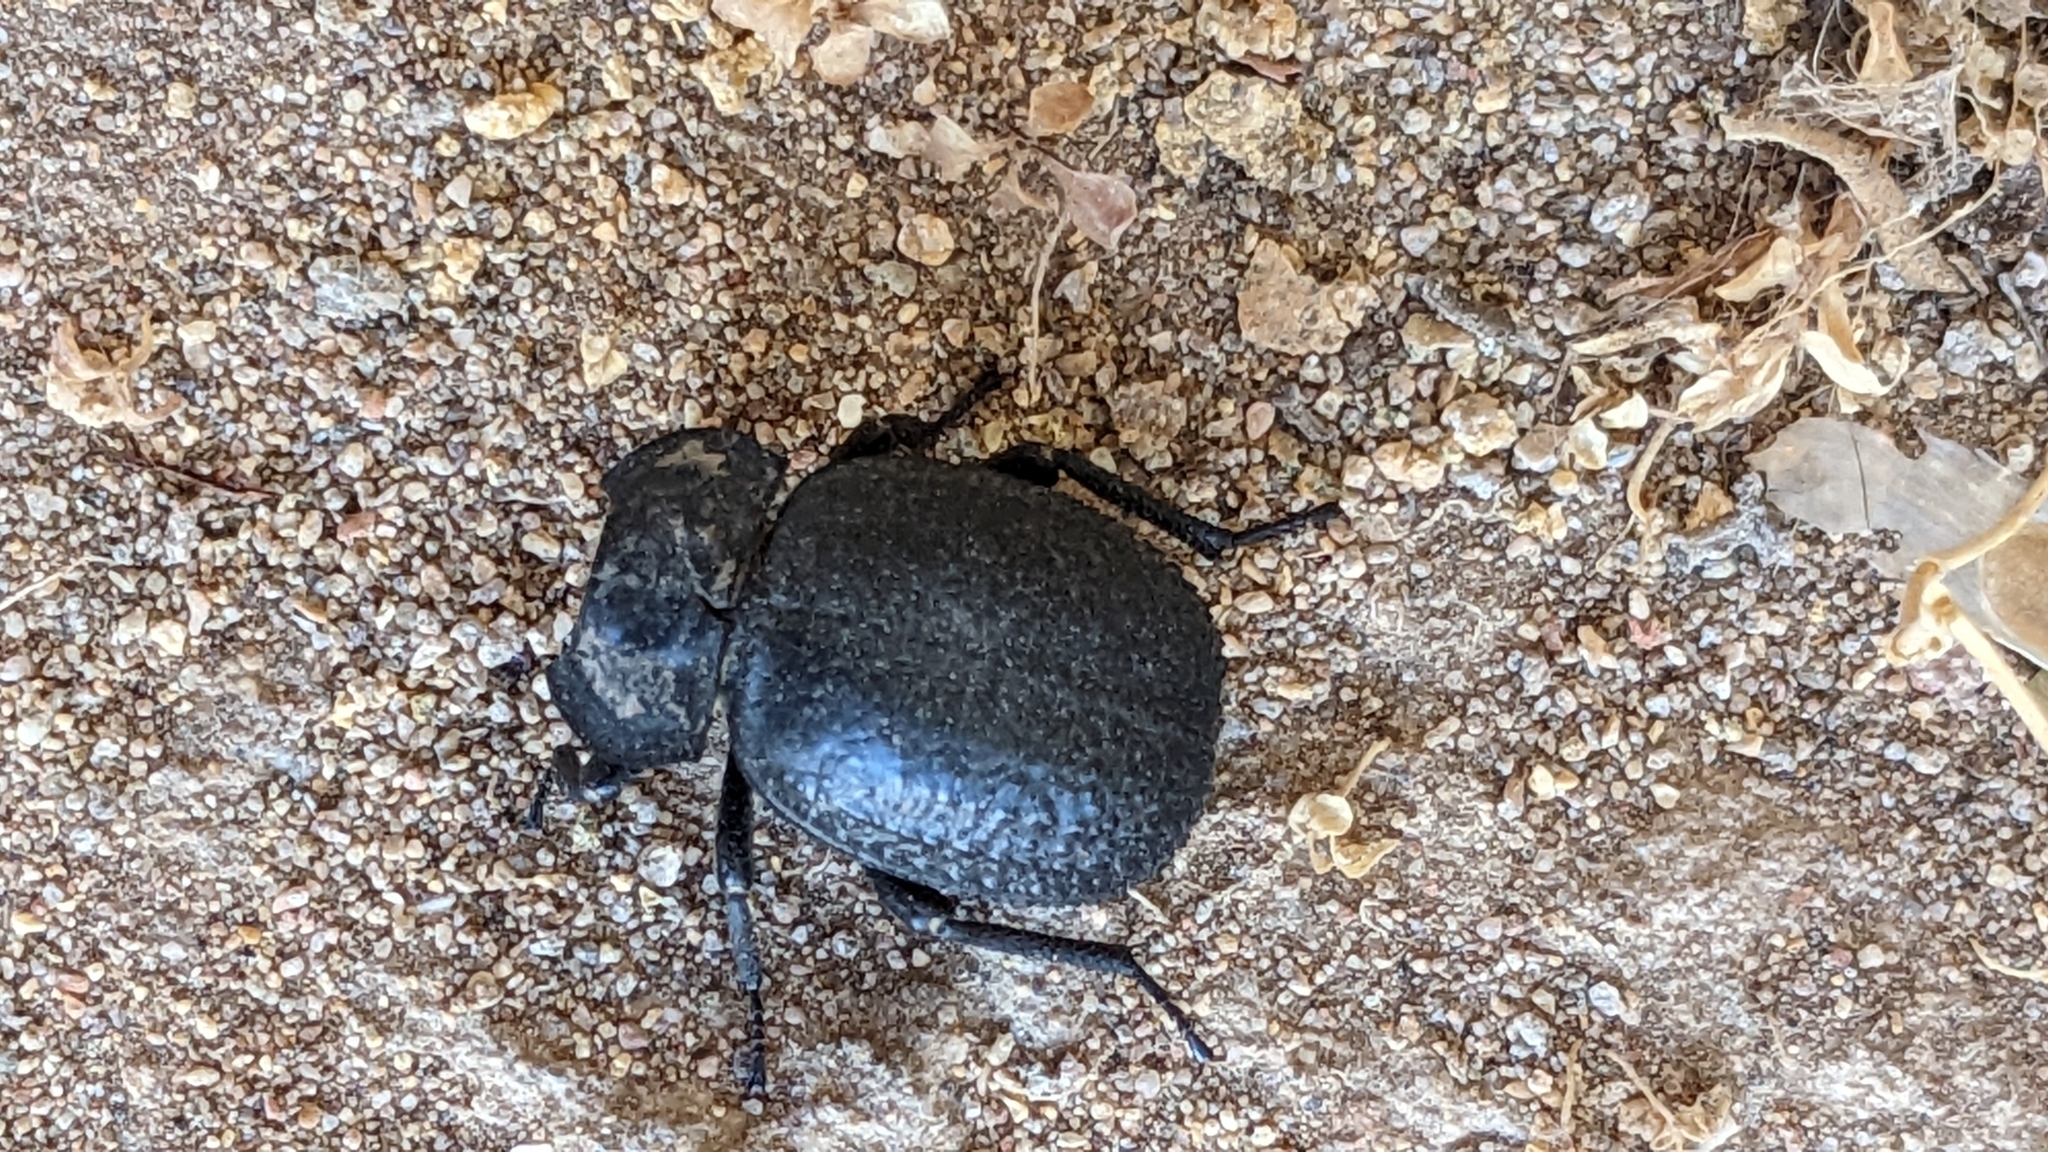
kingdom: Animalia
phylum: Arthropoda
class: Insecta
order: Coleoptera
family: Tenebrionidae
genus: Morica
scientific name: Morica
